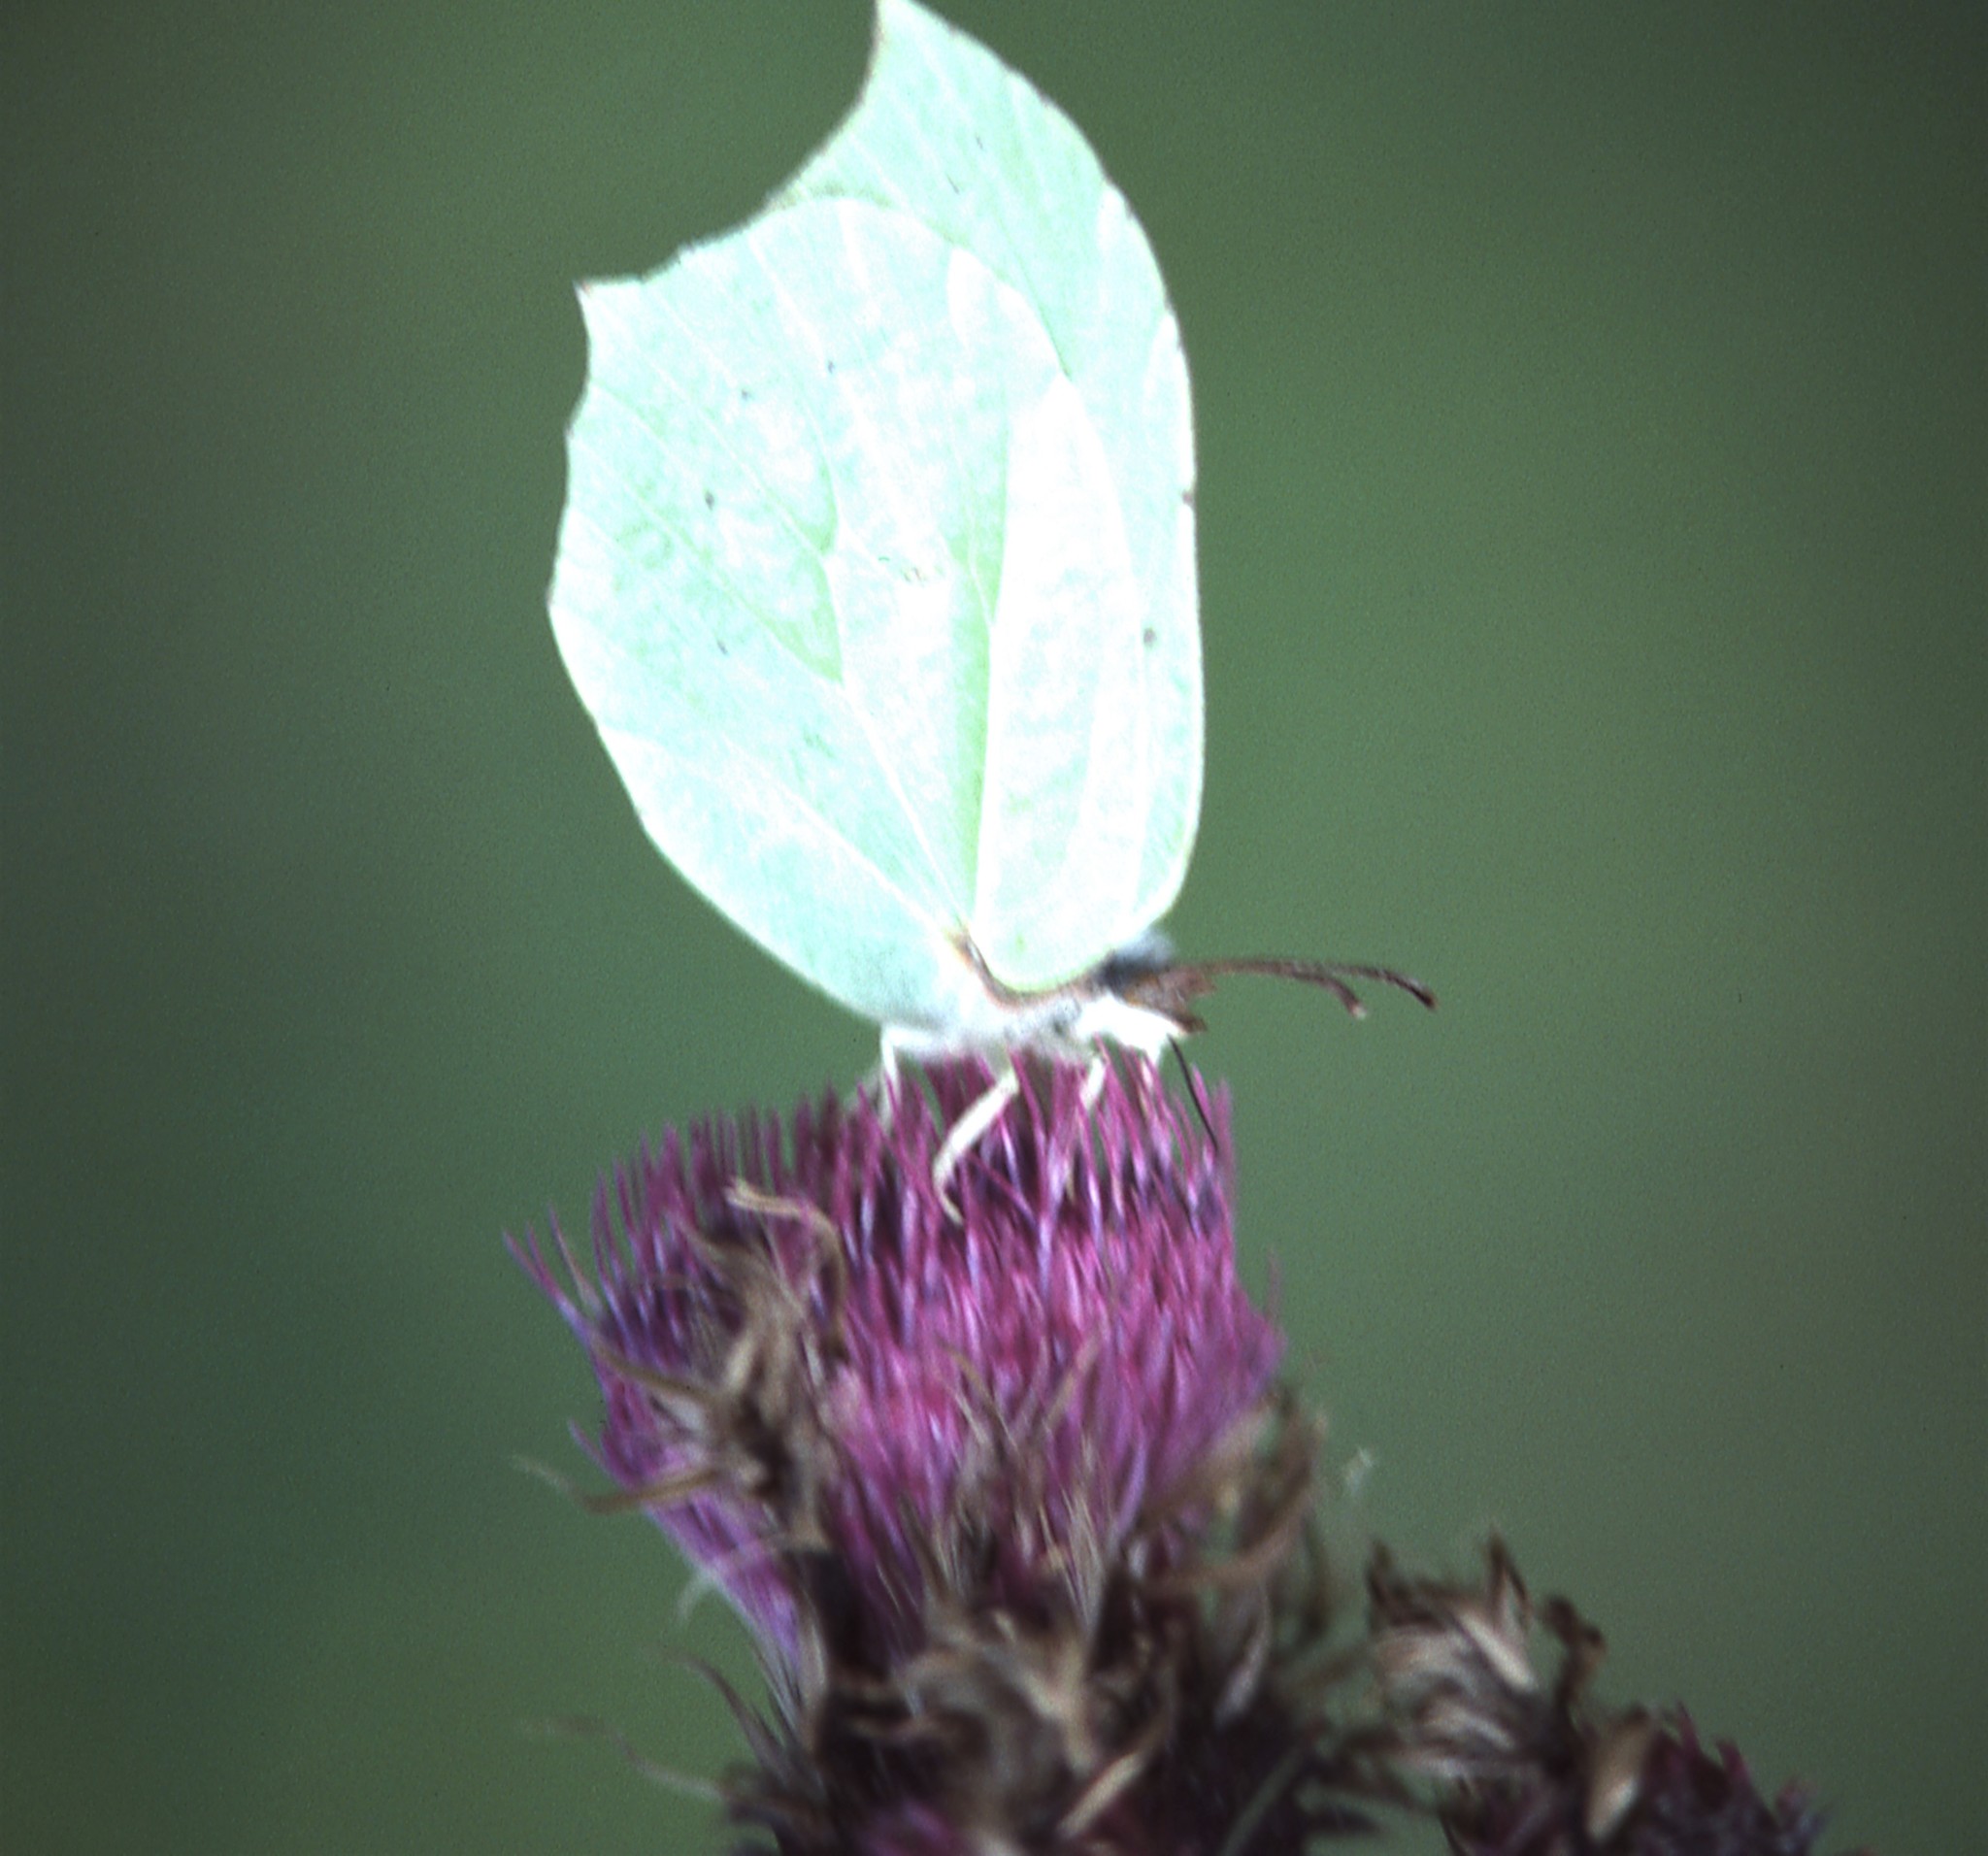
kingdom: Animalia
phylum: Arthropoda
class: Insecta
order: Lepidoptera
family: Pieridae
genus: Gonepteryx
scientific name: Gonepteryx aspasia
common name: Lesser brimstone
